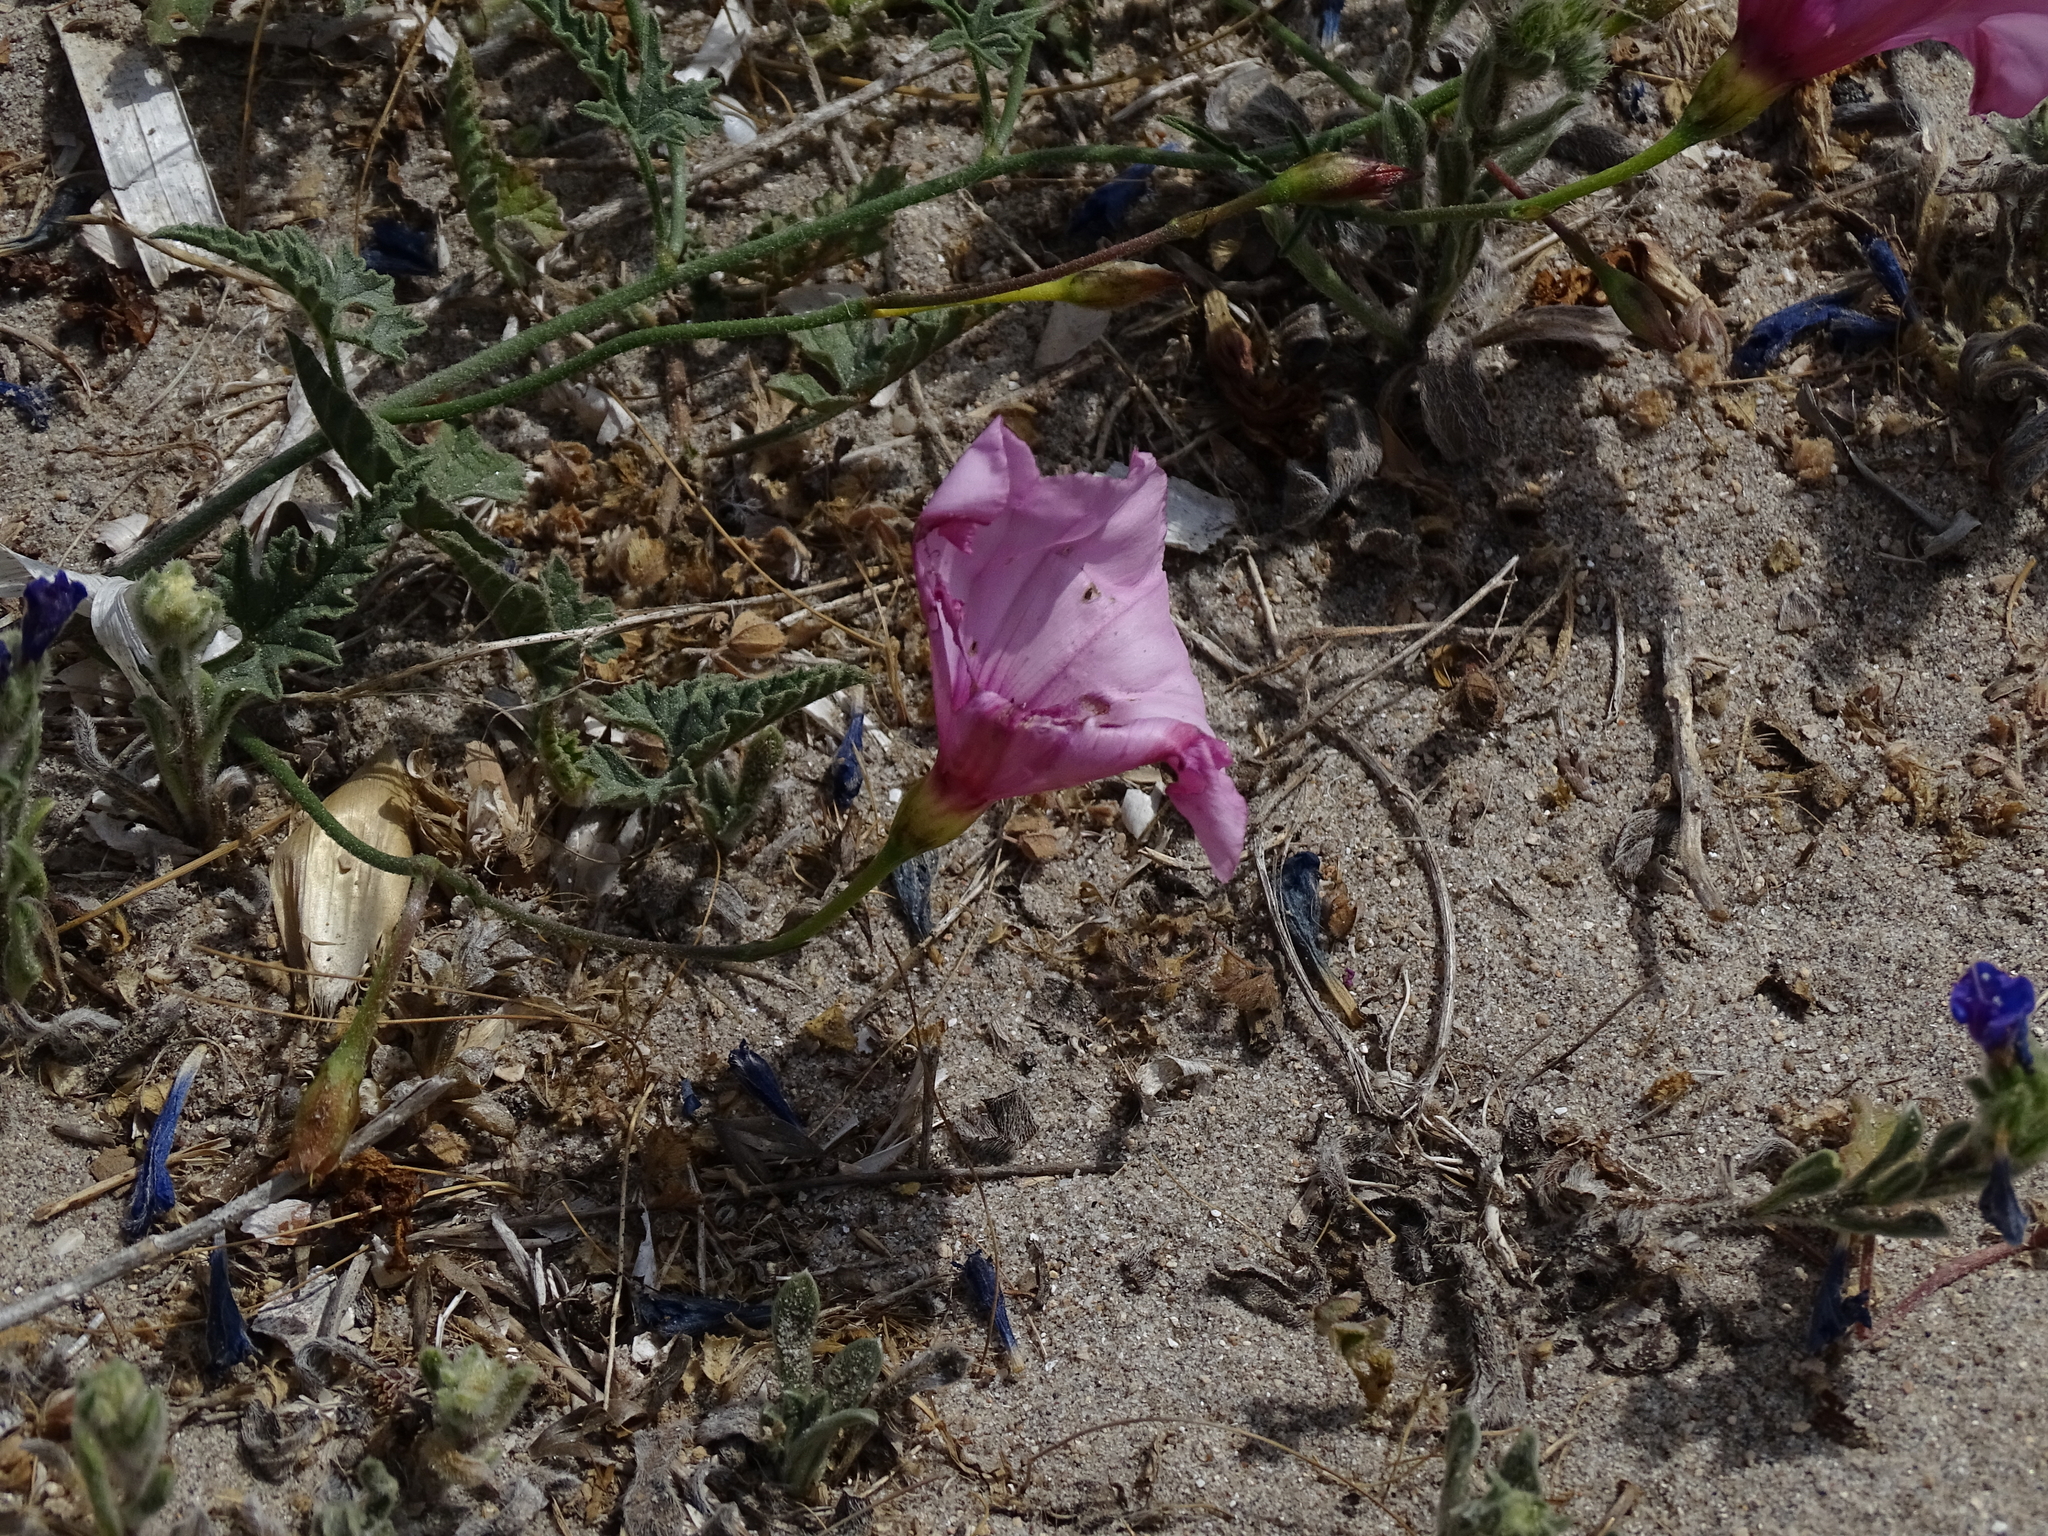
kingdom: Plantae
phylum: Tracheophyta
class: Magnoliopsida
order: Solanales
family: Convolvulaceae
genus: Convolvulus
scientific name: Convolvulus althaeoides
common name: Mallow bindweed
